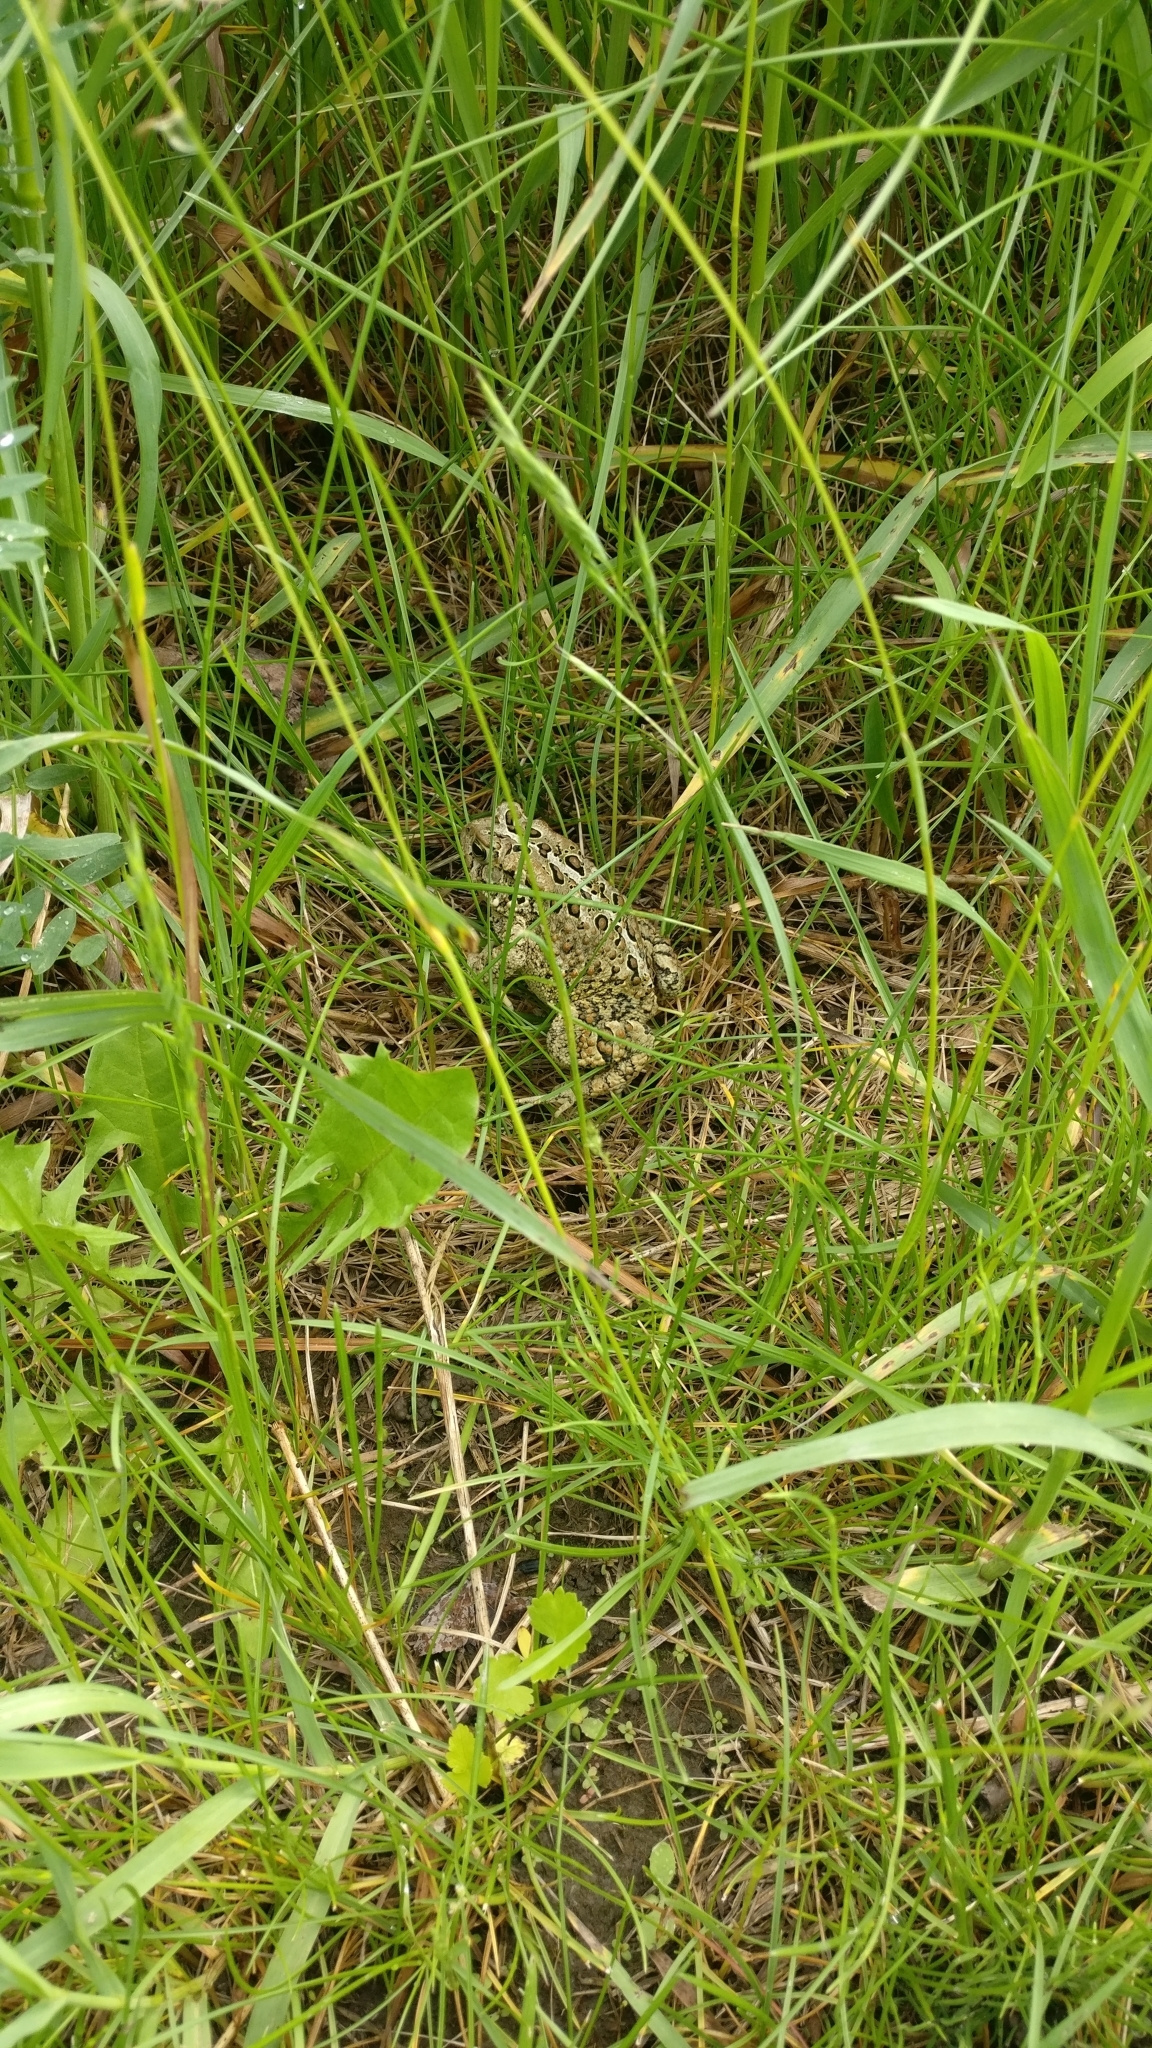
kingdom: Animalia
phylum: Chordata
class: Amphibia
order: Anura
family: Bufonidae
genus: Anaxyrus
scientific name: Anaxyrus americanus
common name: American toad
